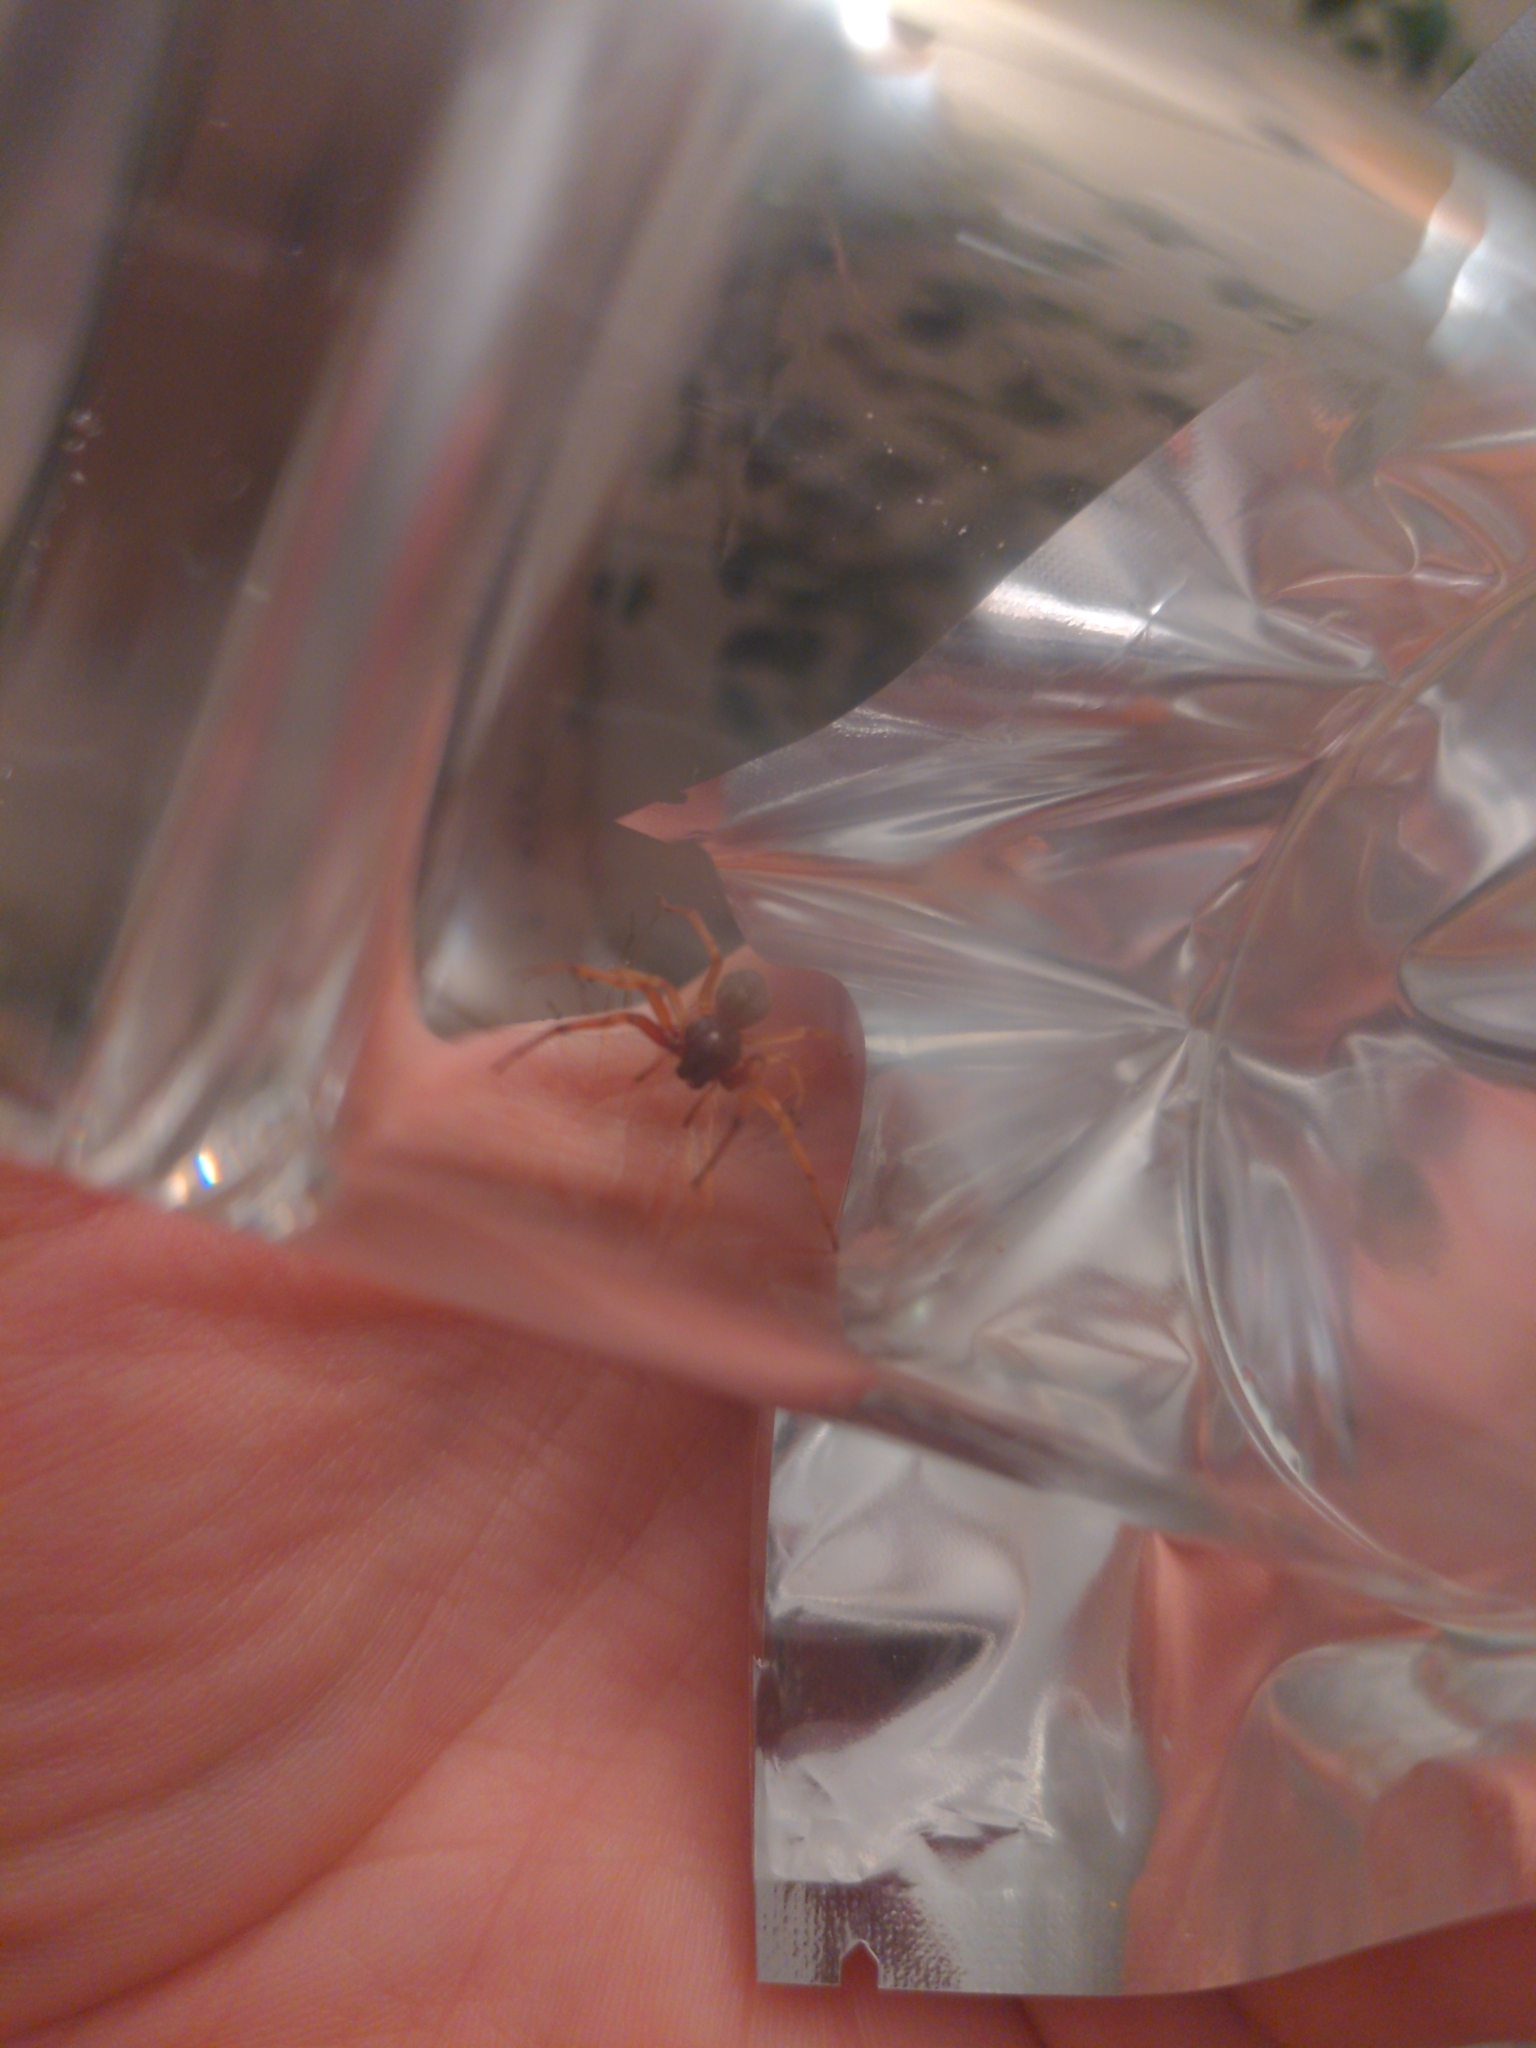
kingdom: Animalia
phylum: Arthropoda
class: Arachnida
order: Araneae
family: Trachelidae
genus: Trachelas
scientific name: Trachelas tranquillus
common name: Broad-faced sac spider
